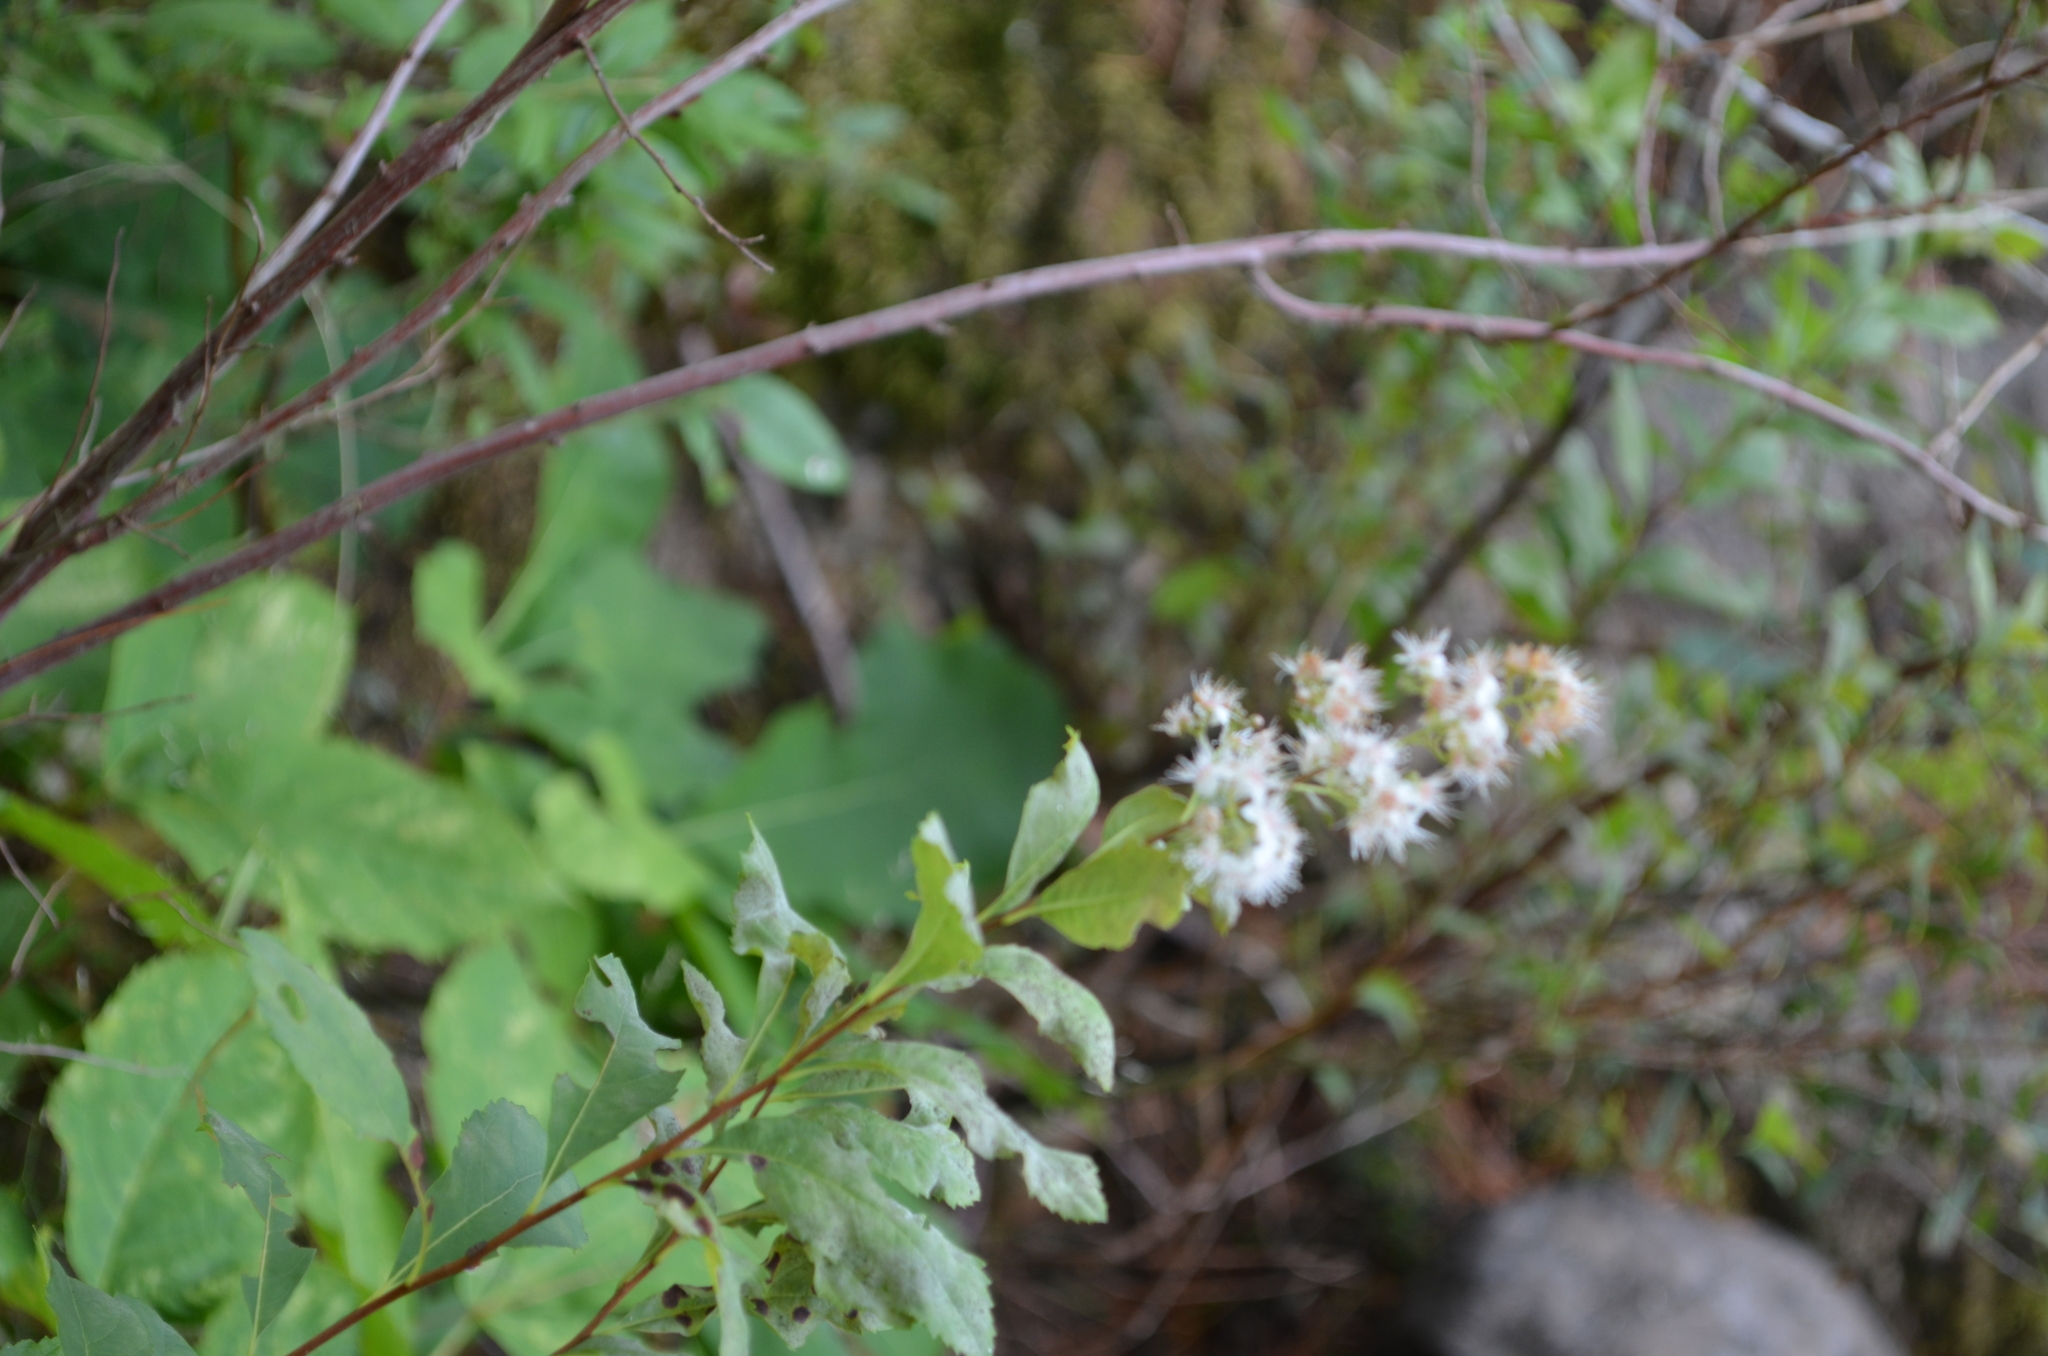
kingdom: Plantae
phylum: Tracheophyta
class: Magnoliopsida
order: Rosales
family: Rosaceae
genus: Spiraea
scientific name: Spiraea alba
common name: Pale bridewort
